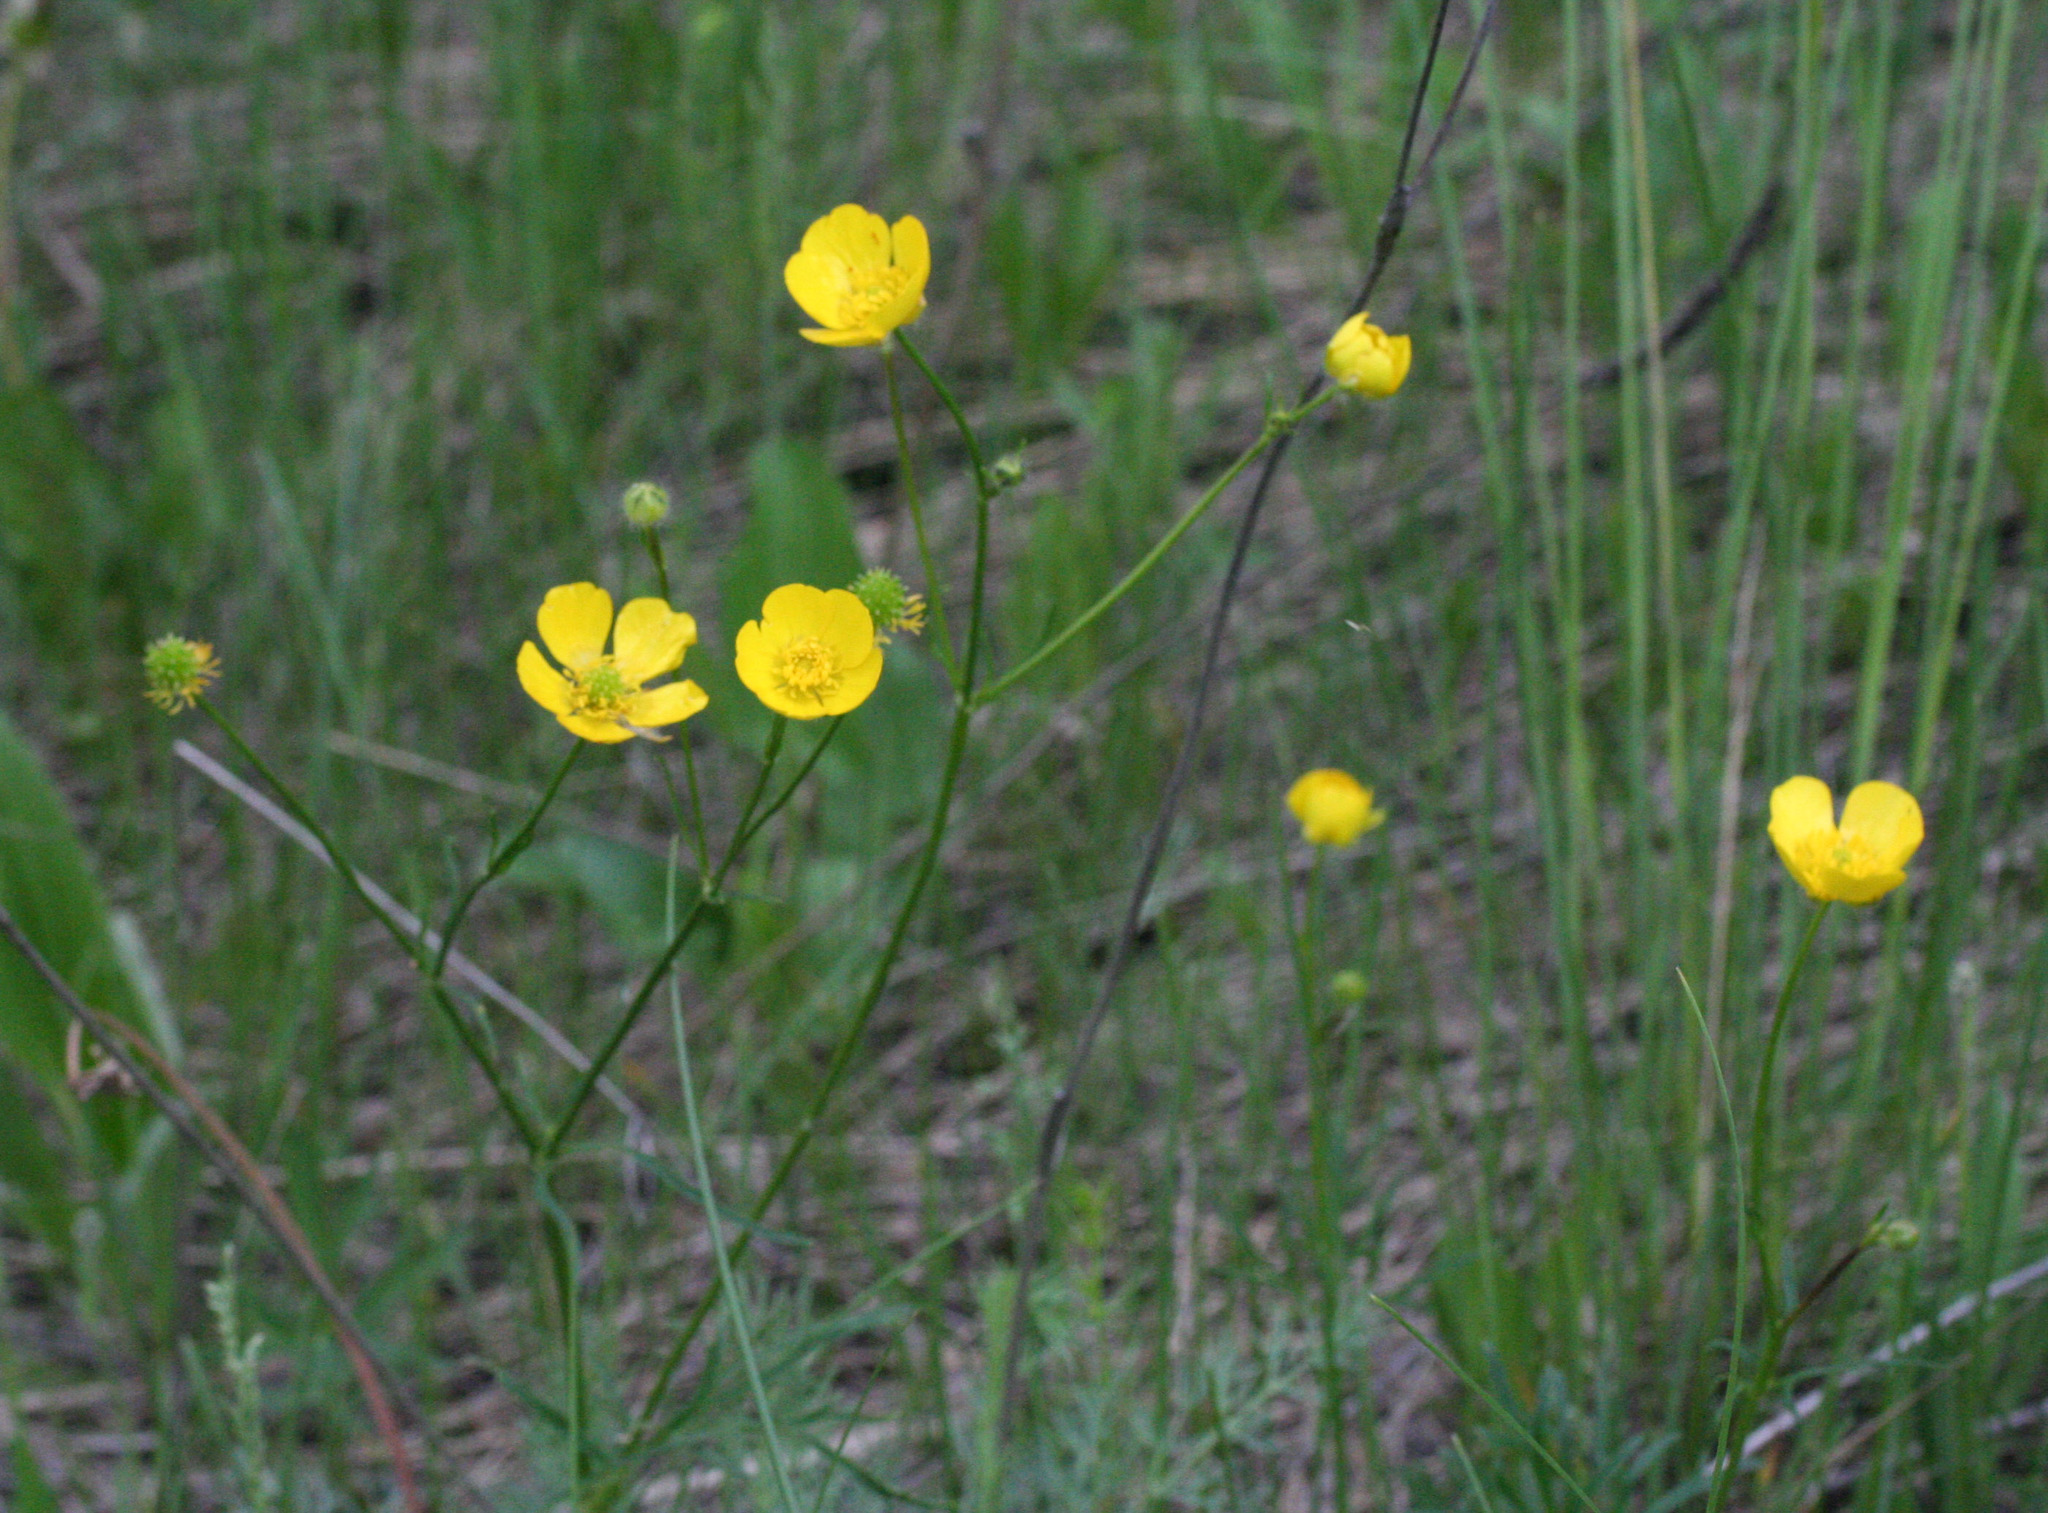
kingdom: Plantae
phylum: Tracheophyta
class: Magnoliopsida
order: Ranunculales
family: Ranunculaceae
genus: Ranunculus
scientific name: Ranunculus polyanthemos
